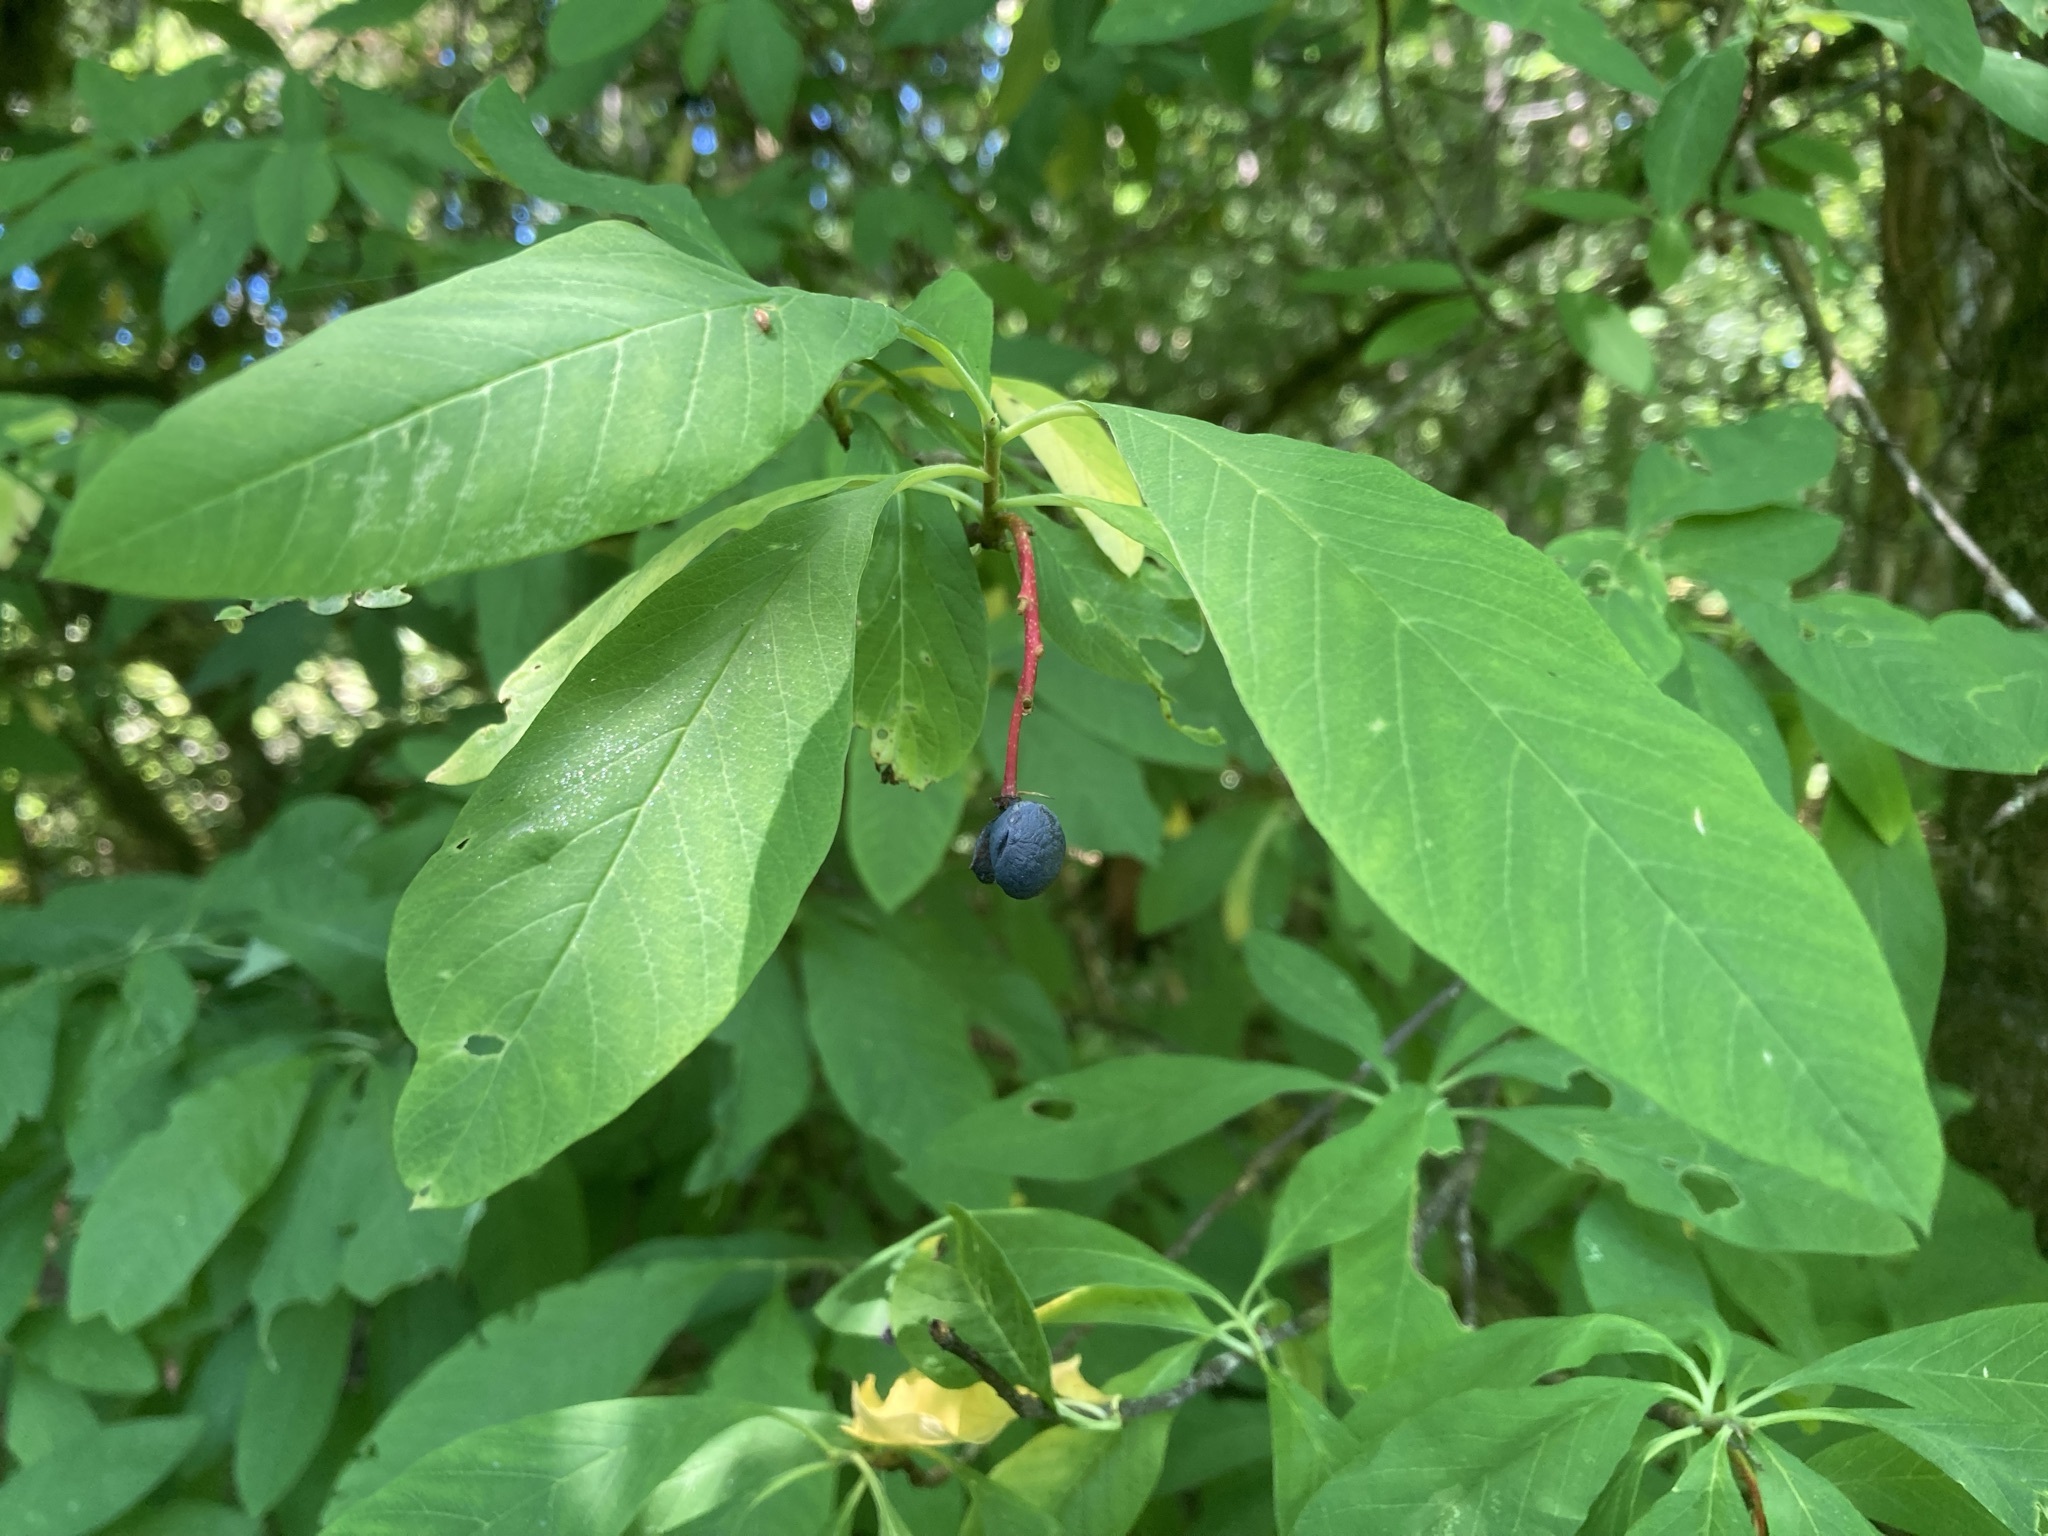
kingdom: Plantae
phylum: Tracheophyta
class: Magnoliopsida
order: Rosales
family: Rosaceae
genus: Oemleria
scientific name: Oemleria cerasiformis
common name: Osoberry
